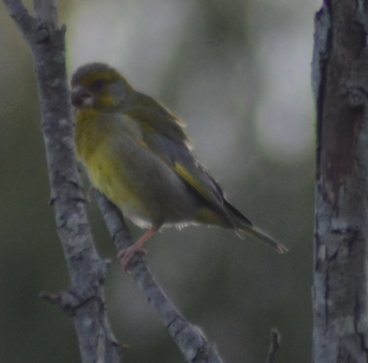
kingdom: Plantae
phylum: Tracheophyta
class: Liliopsida
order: Poales
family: Poaceae
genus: Chloris
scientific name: Chloris chloris
